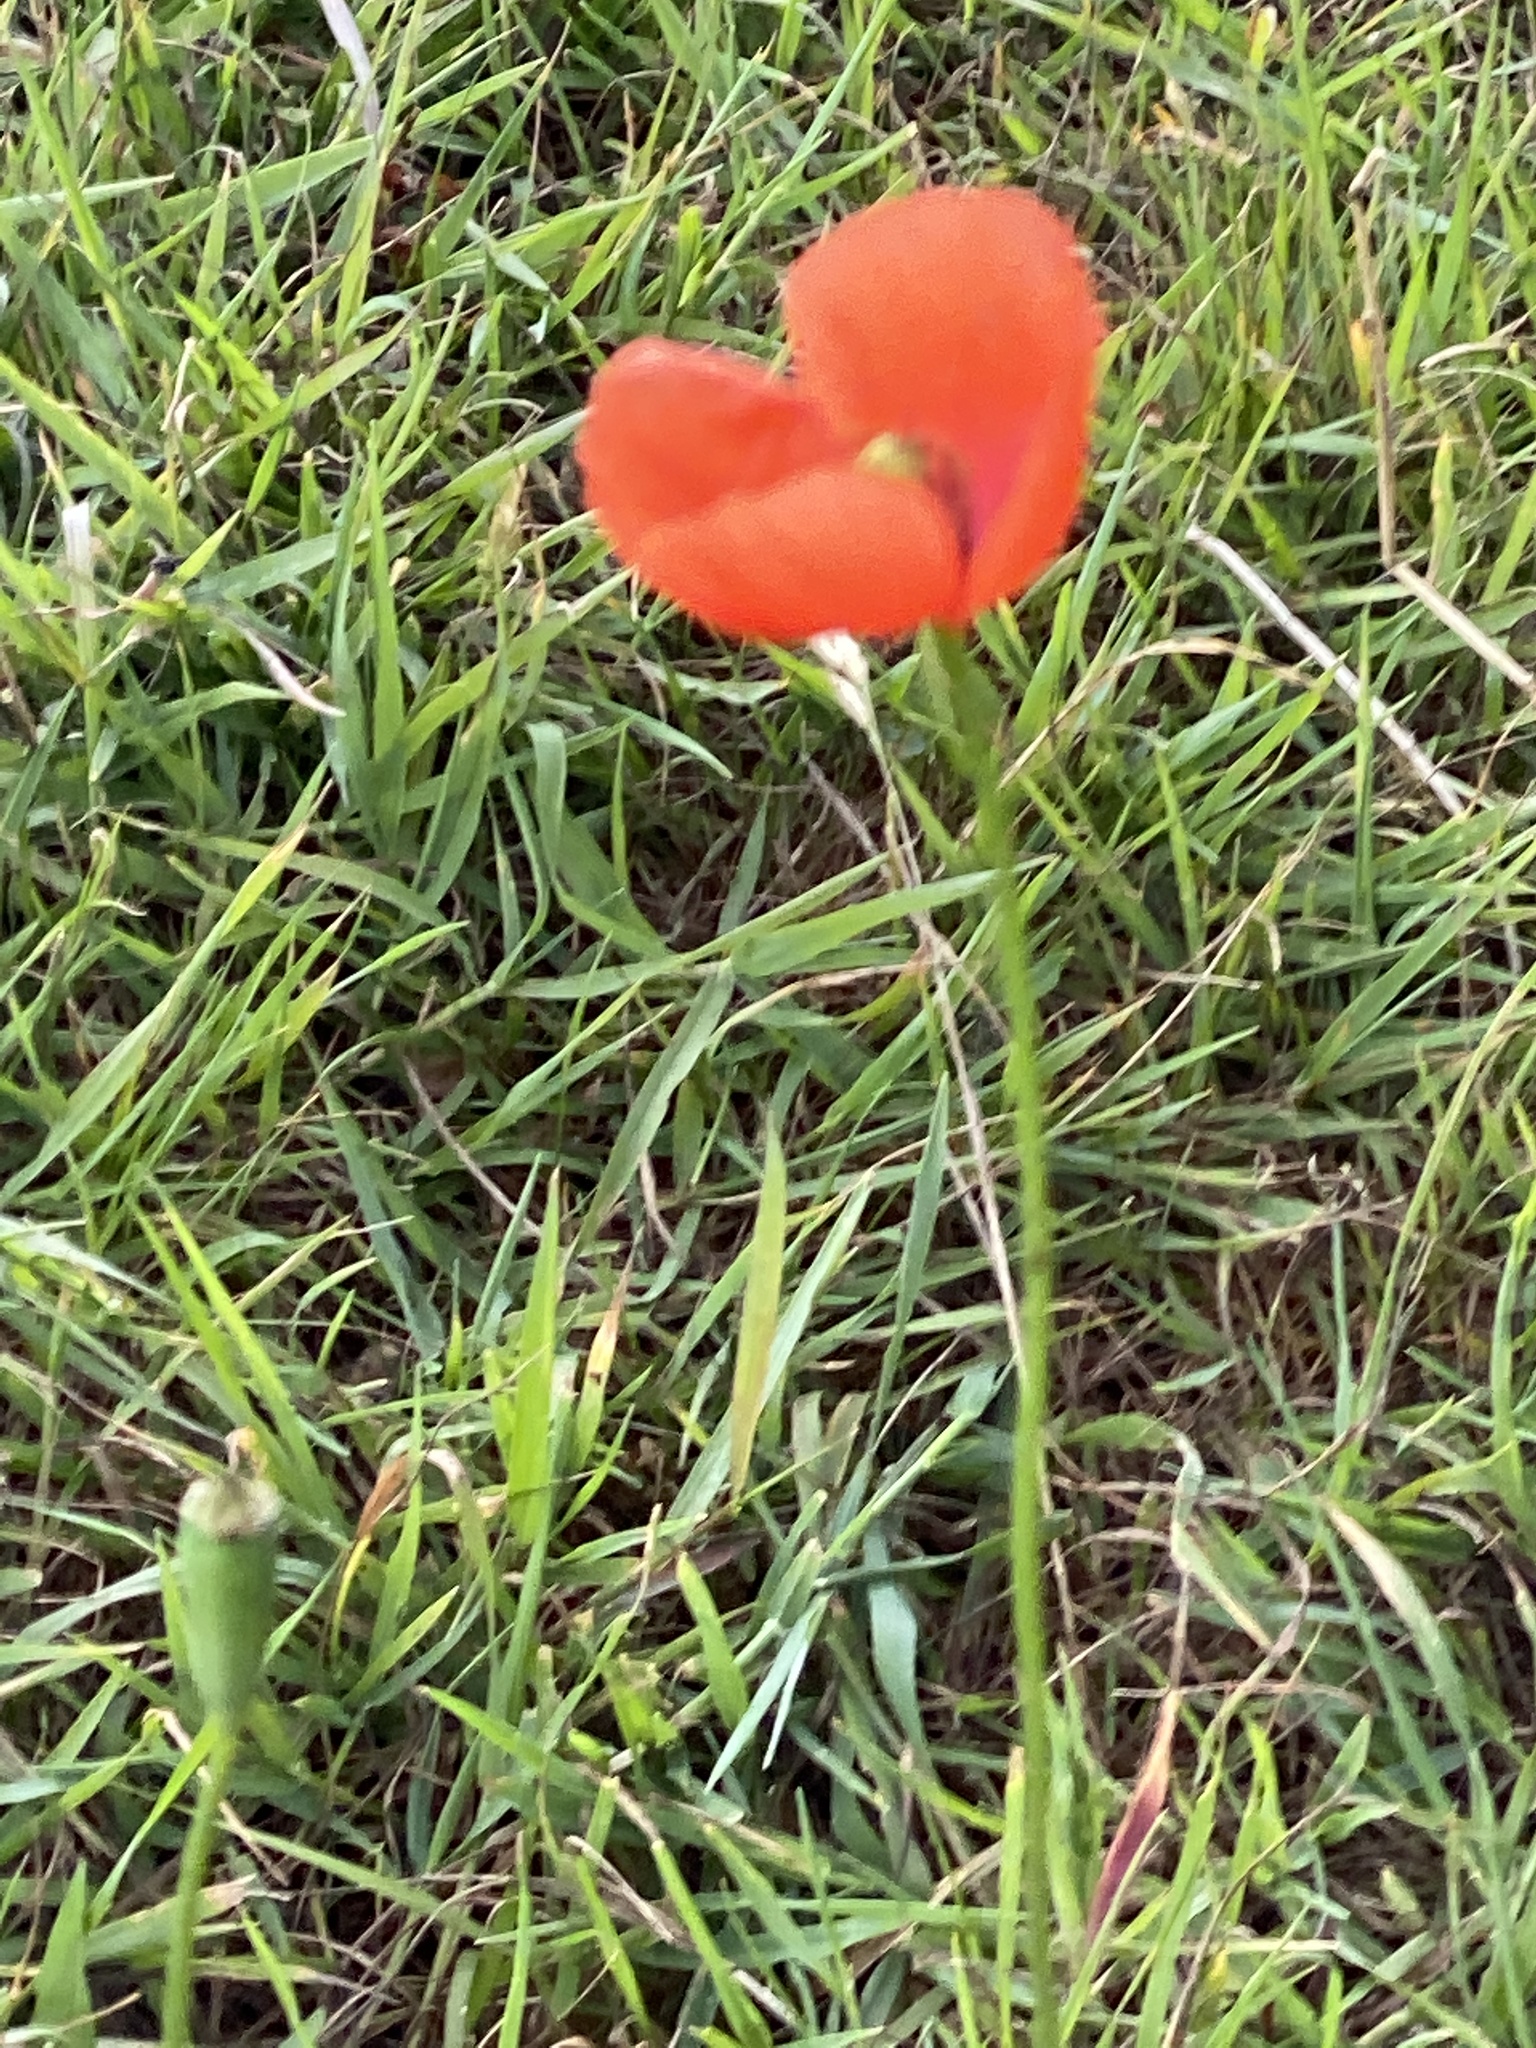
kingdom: Plantae
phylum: Tracheophyta
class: Magnoliopsida
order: Ranunculales
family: Papaveraceae
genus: Papaver
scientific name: Papaver dubium
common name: Long-headed poppy
